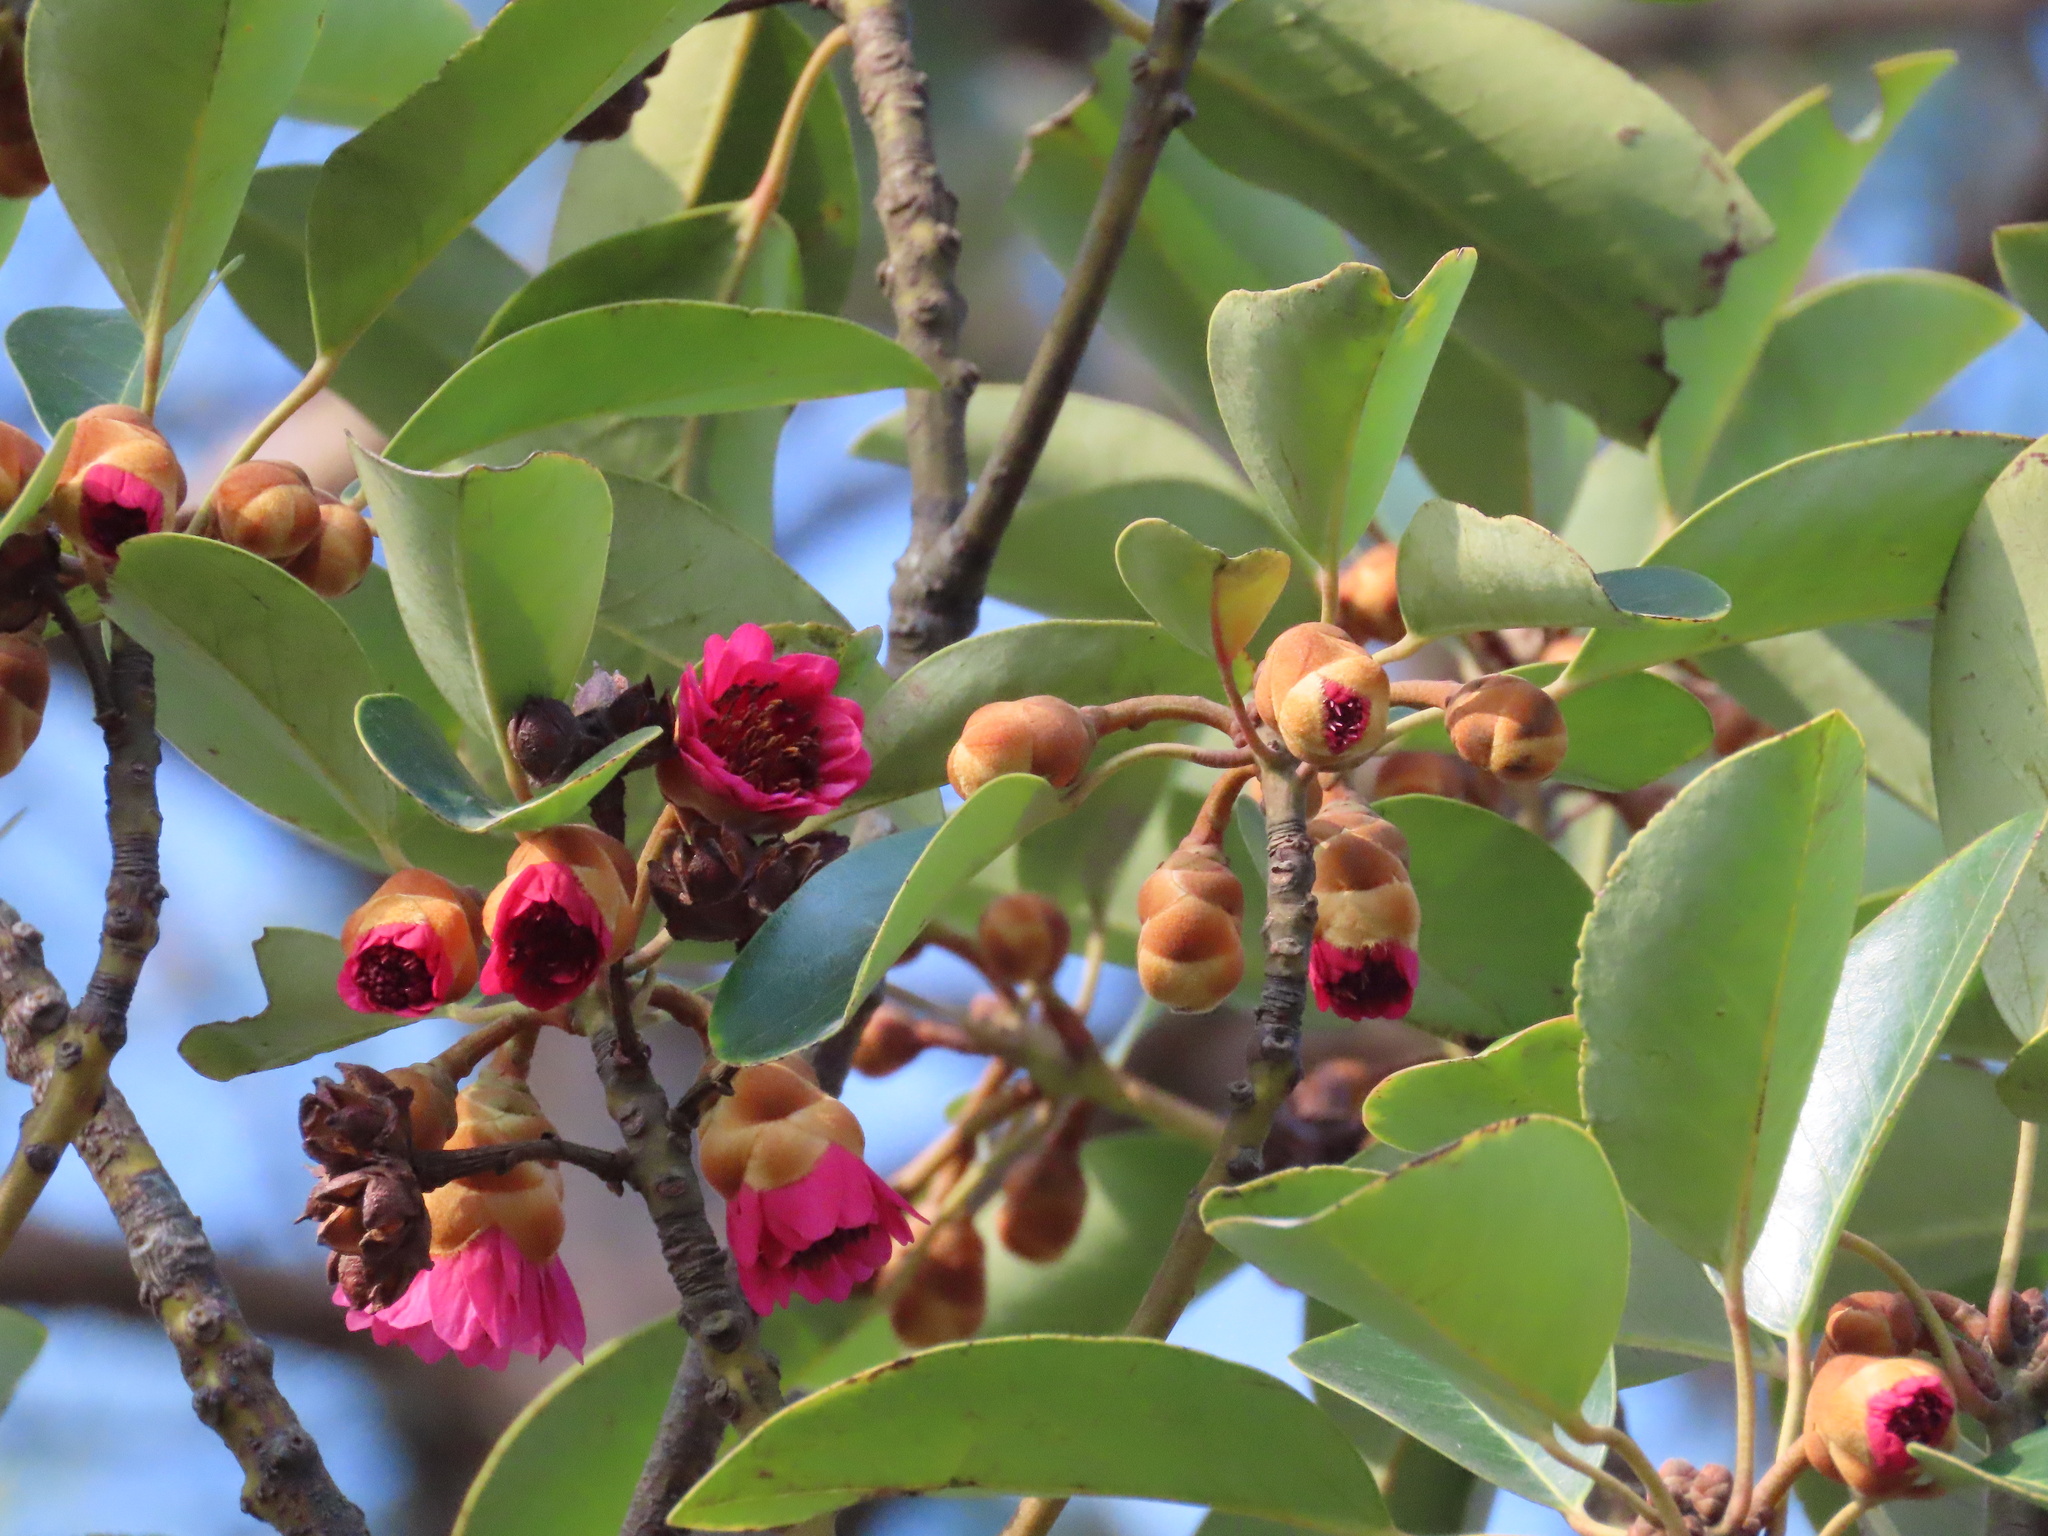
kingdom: Plantae
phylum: Tracheophyta
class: Magnoliopsida
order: Saxifragales
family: Hamamelidaceae
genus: Rhodoleia
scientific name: Rhodoleia championii
